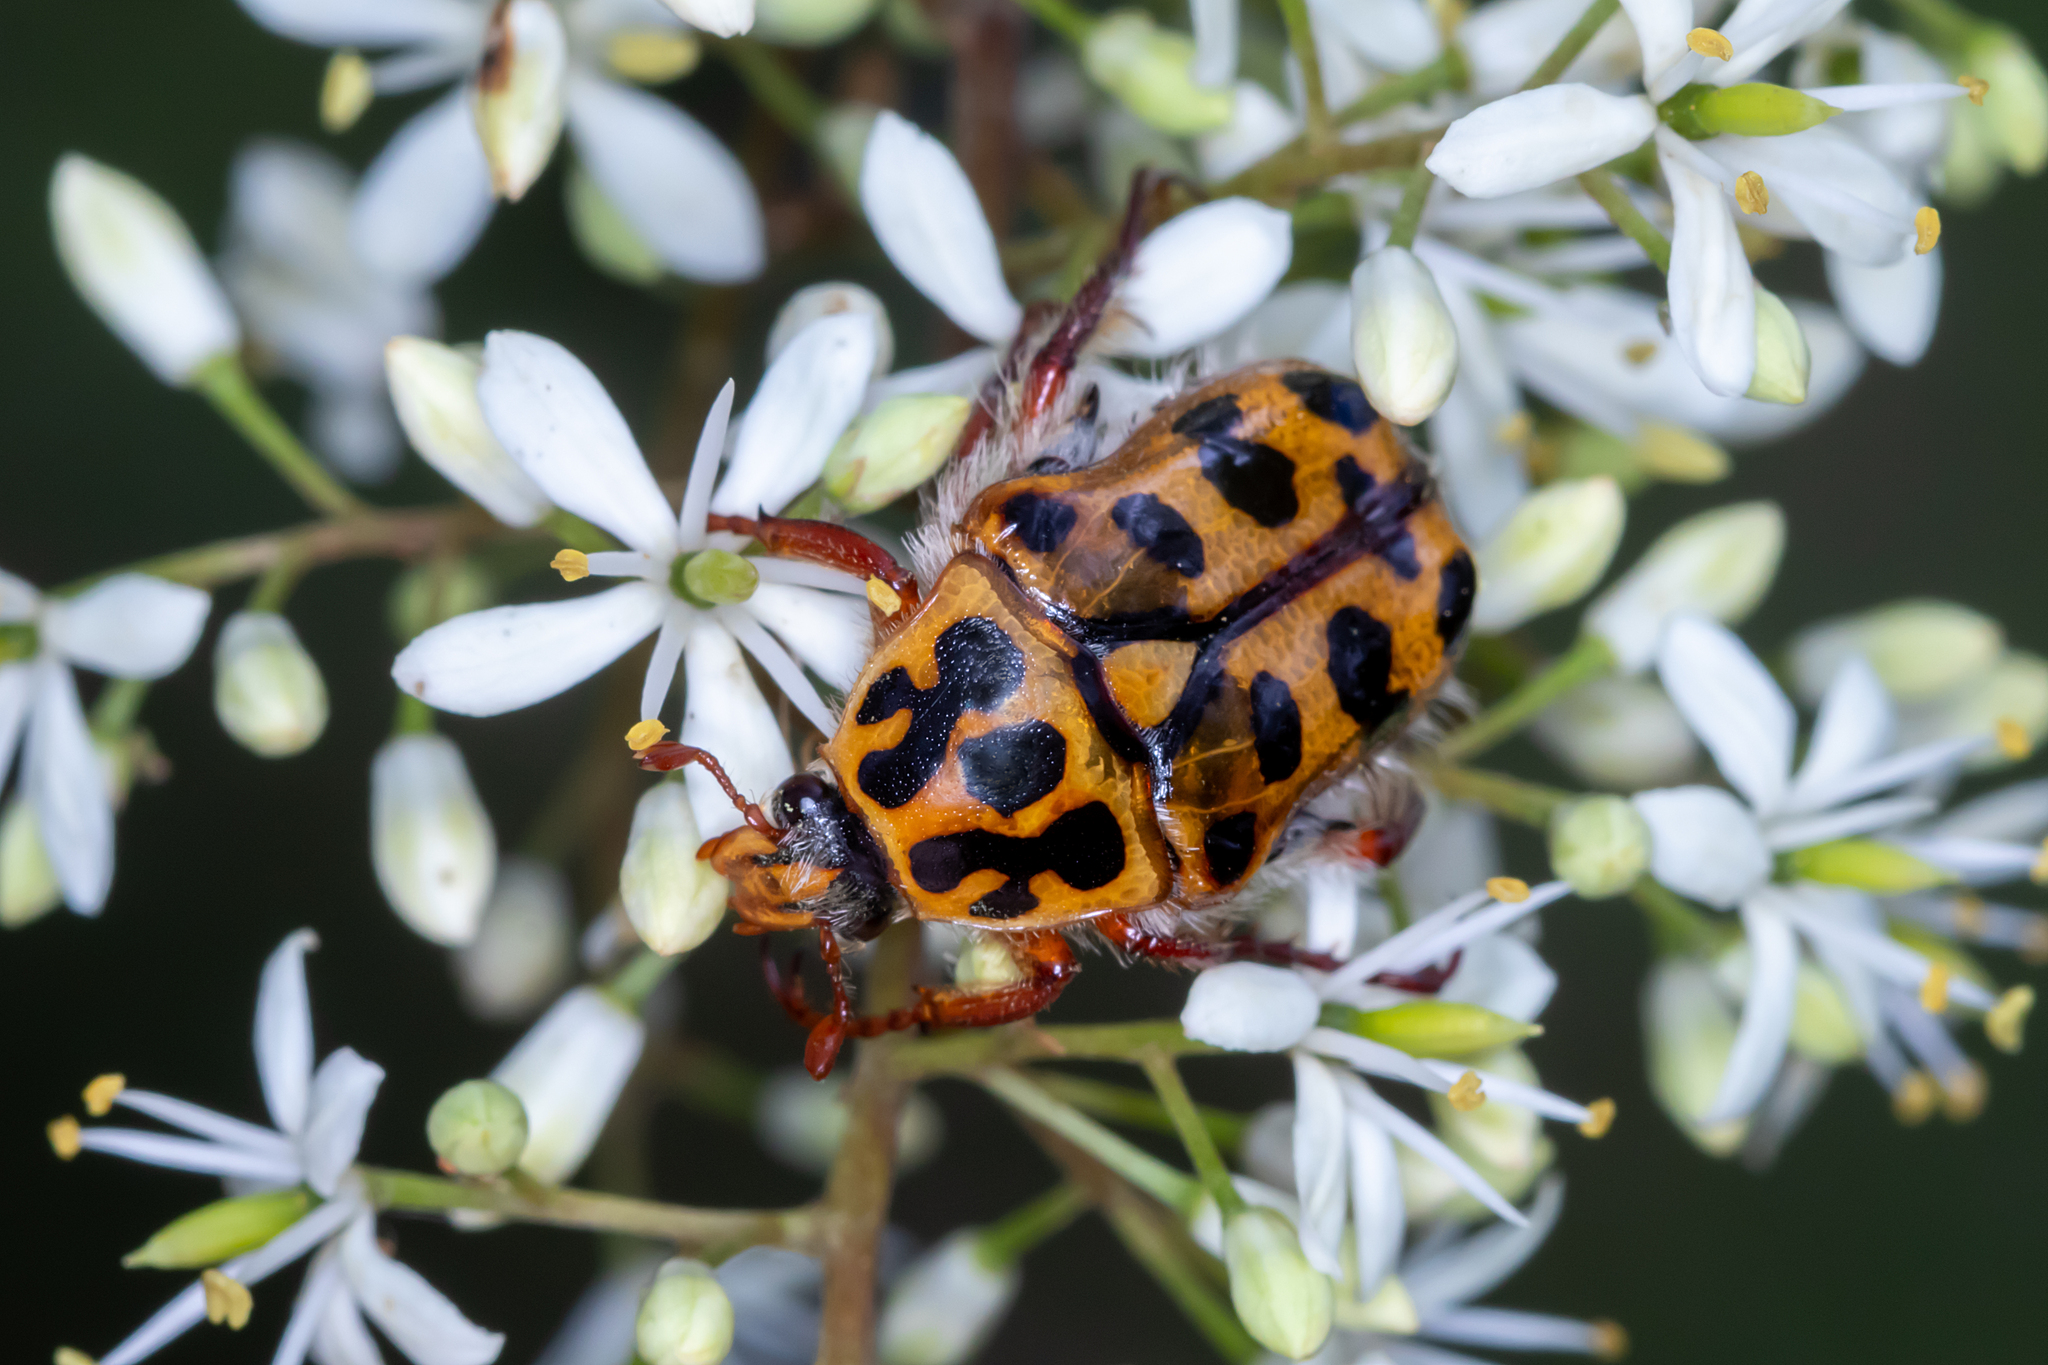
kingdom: Animalia
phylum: Arthropoda
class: Insecta
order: Coleoptera
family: Scarabaeidae
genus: Neorrhina
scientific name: Neorrhina punctatum
